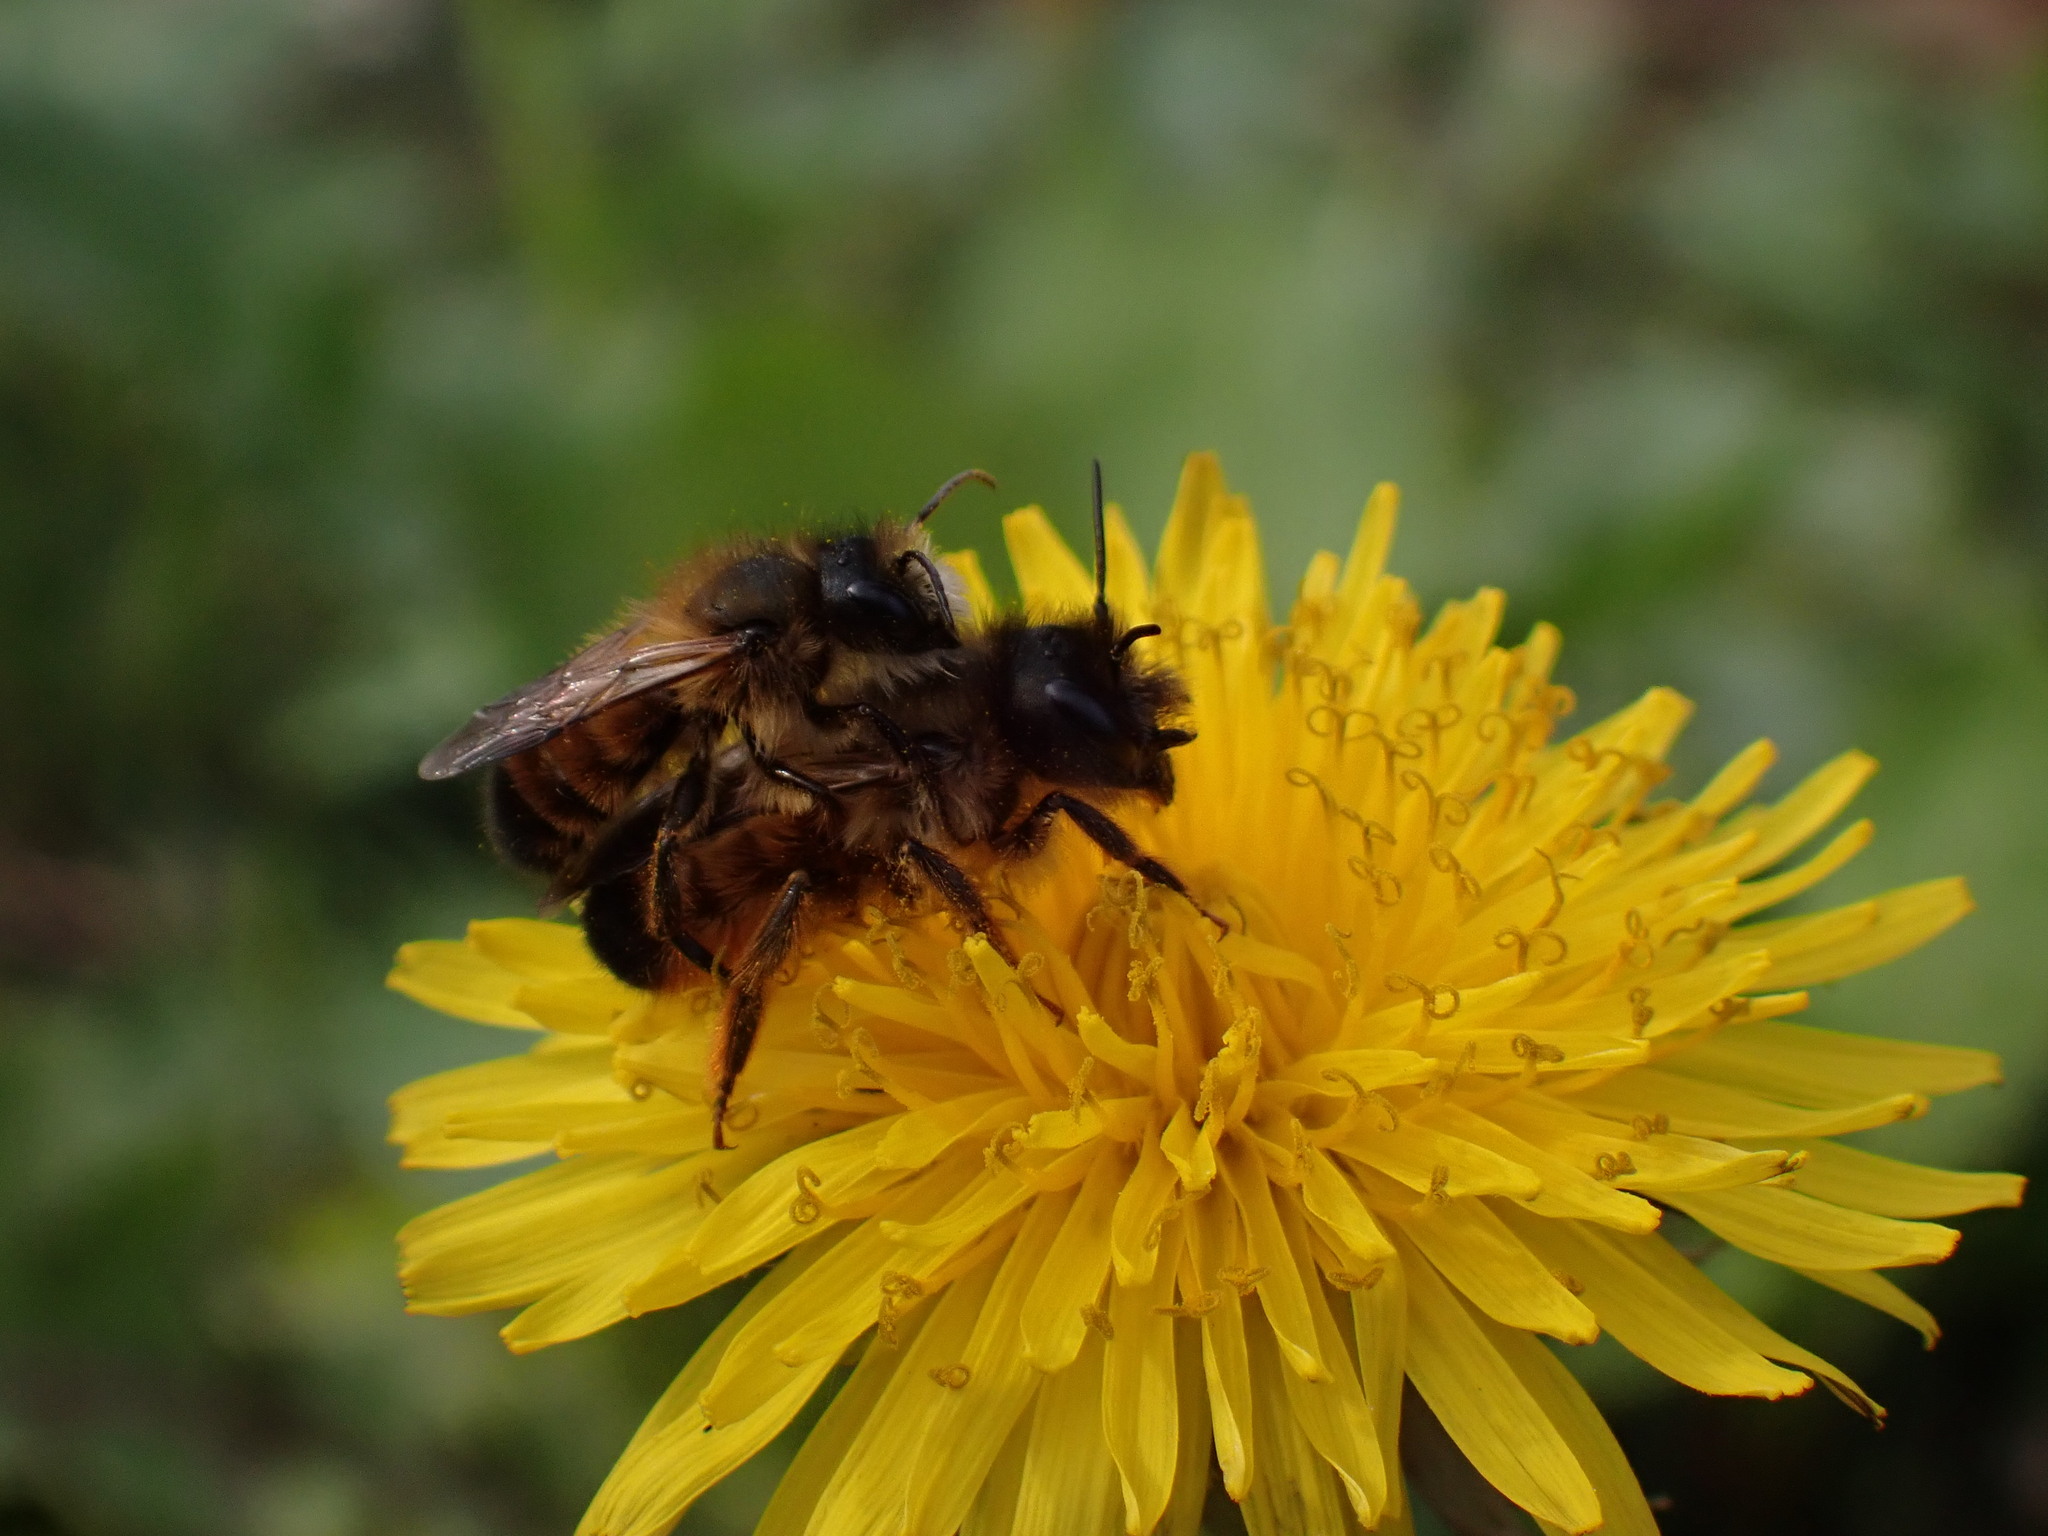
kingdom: Animalia
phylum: Arthropoda
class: Insecta
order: Hymenoptera
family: Megachilidae
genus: Osmia
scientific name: Osmia bicornis
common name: Red mason bee
